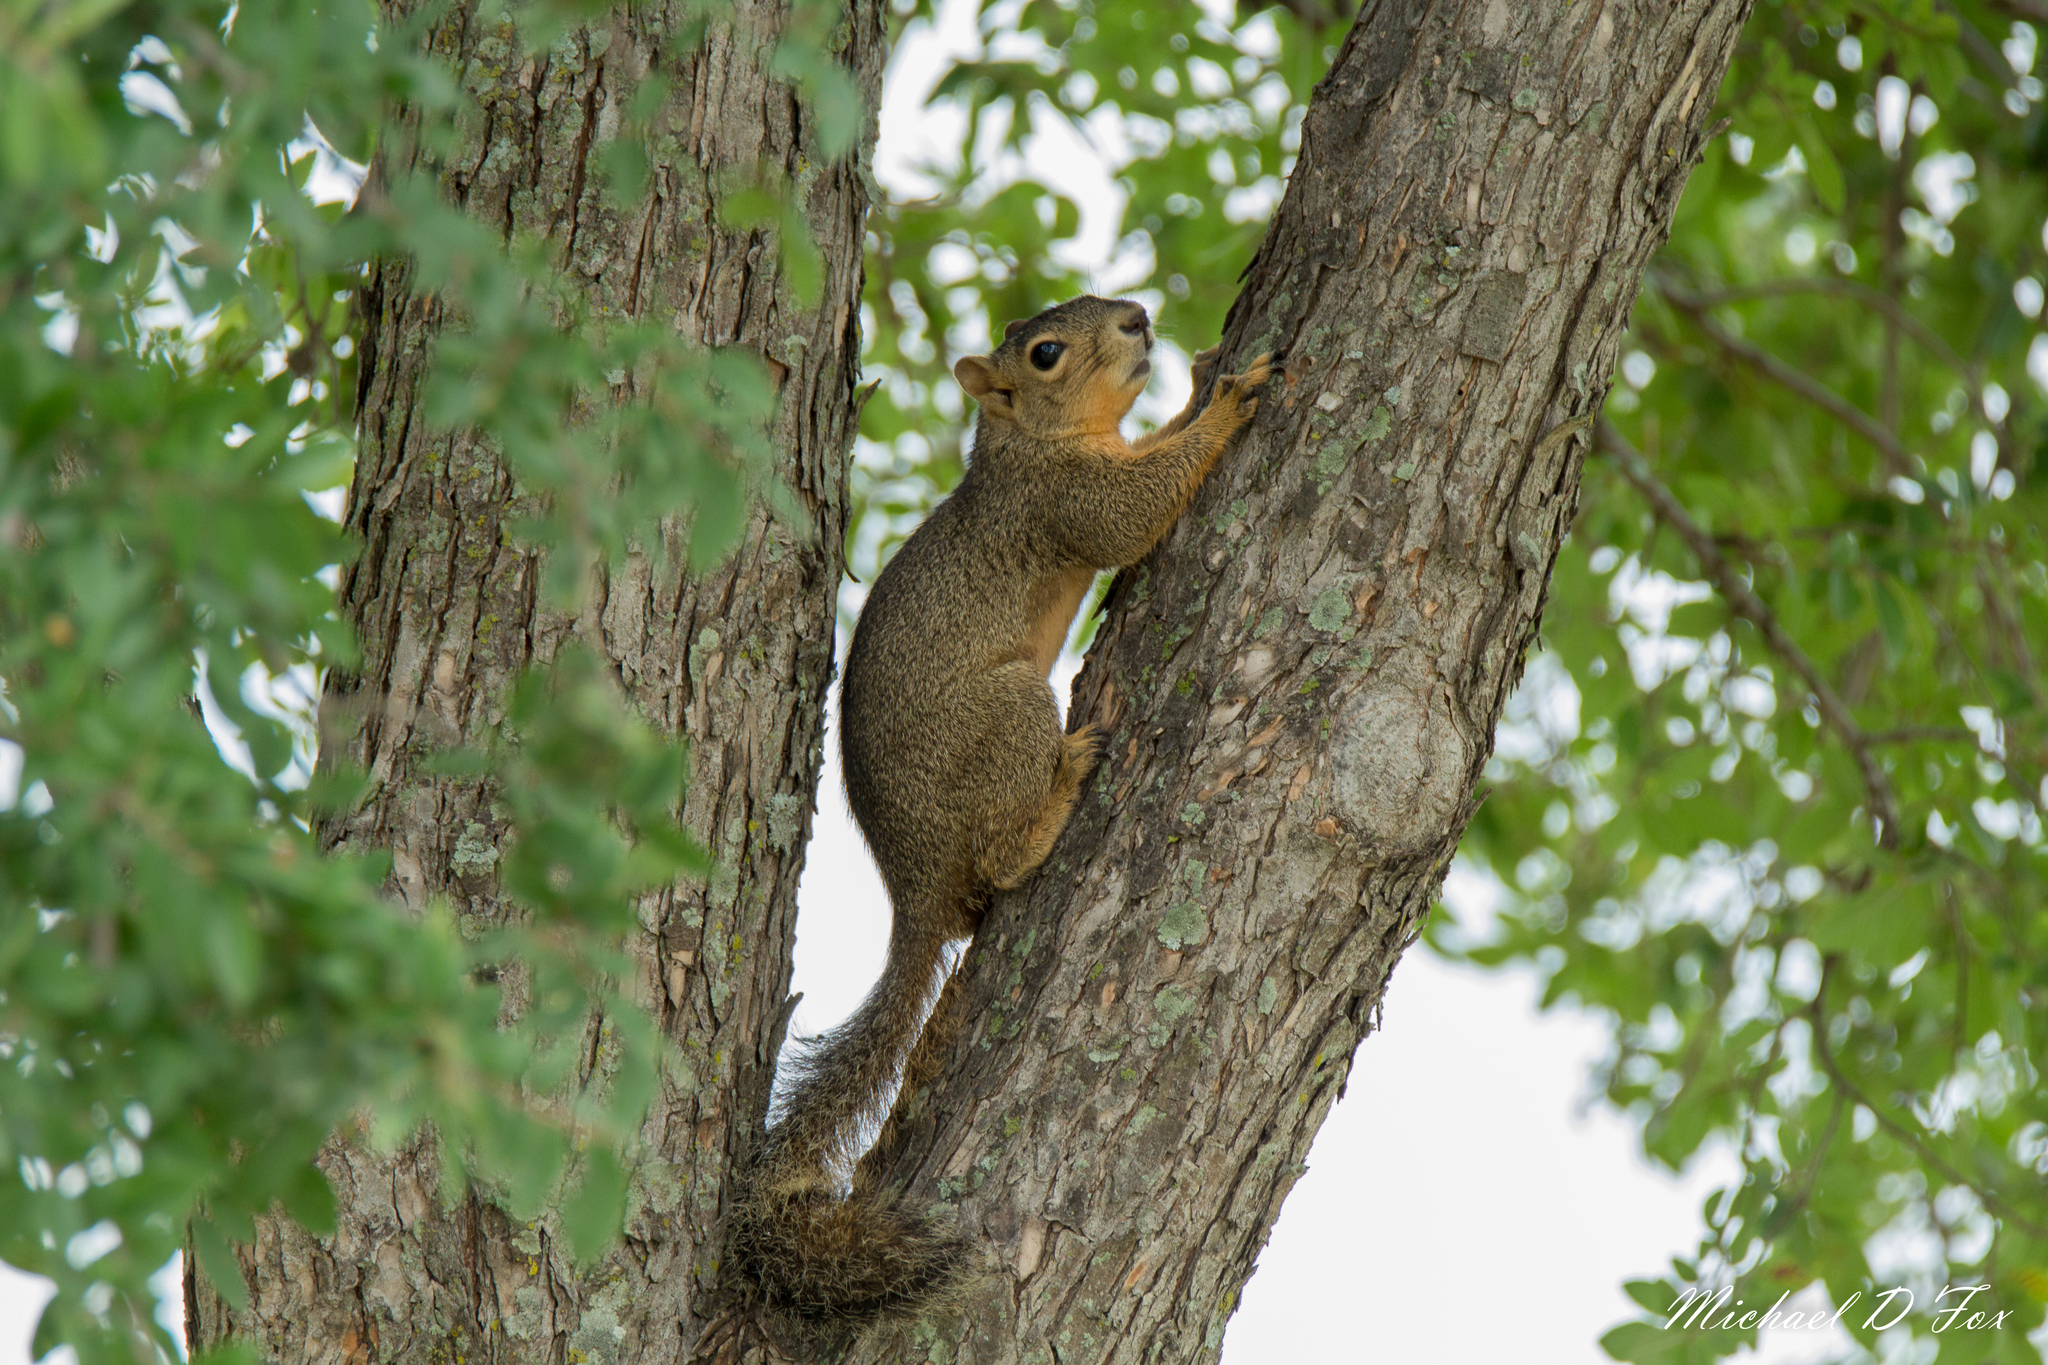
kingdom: Animalia
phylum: Chordata
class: Mammalia
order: Rodentia
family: Sciuridae
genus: Sciurus
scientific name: Sciurus niger
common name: Fox squirrel
